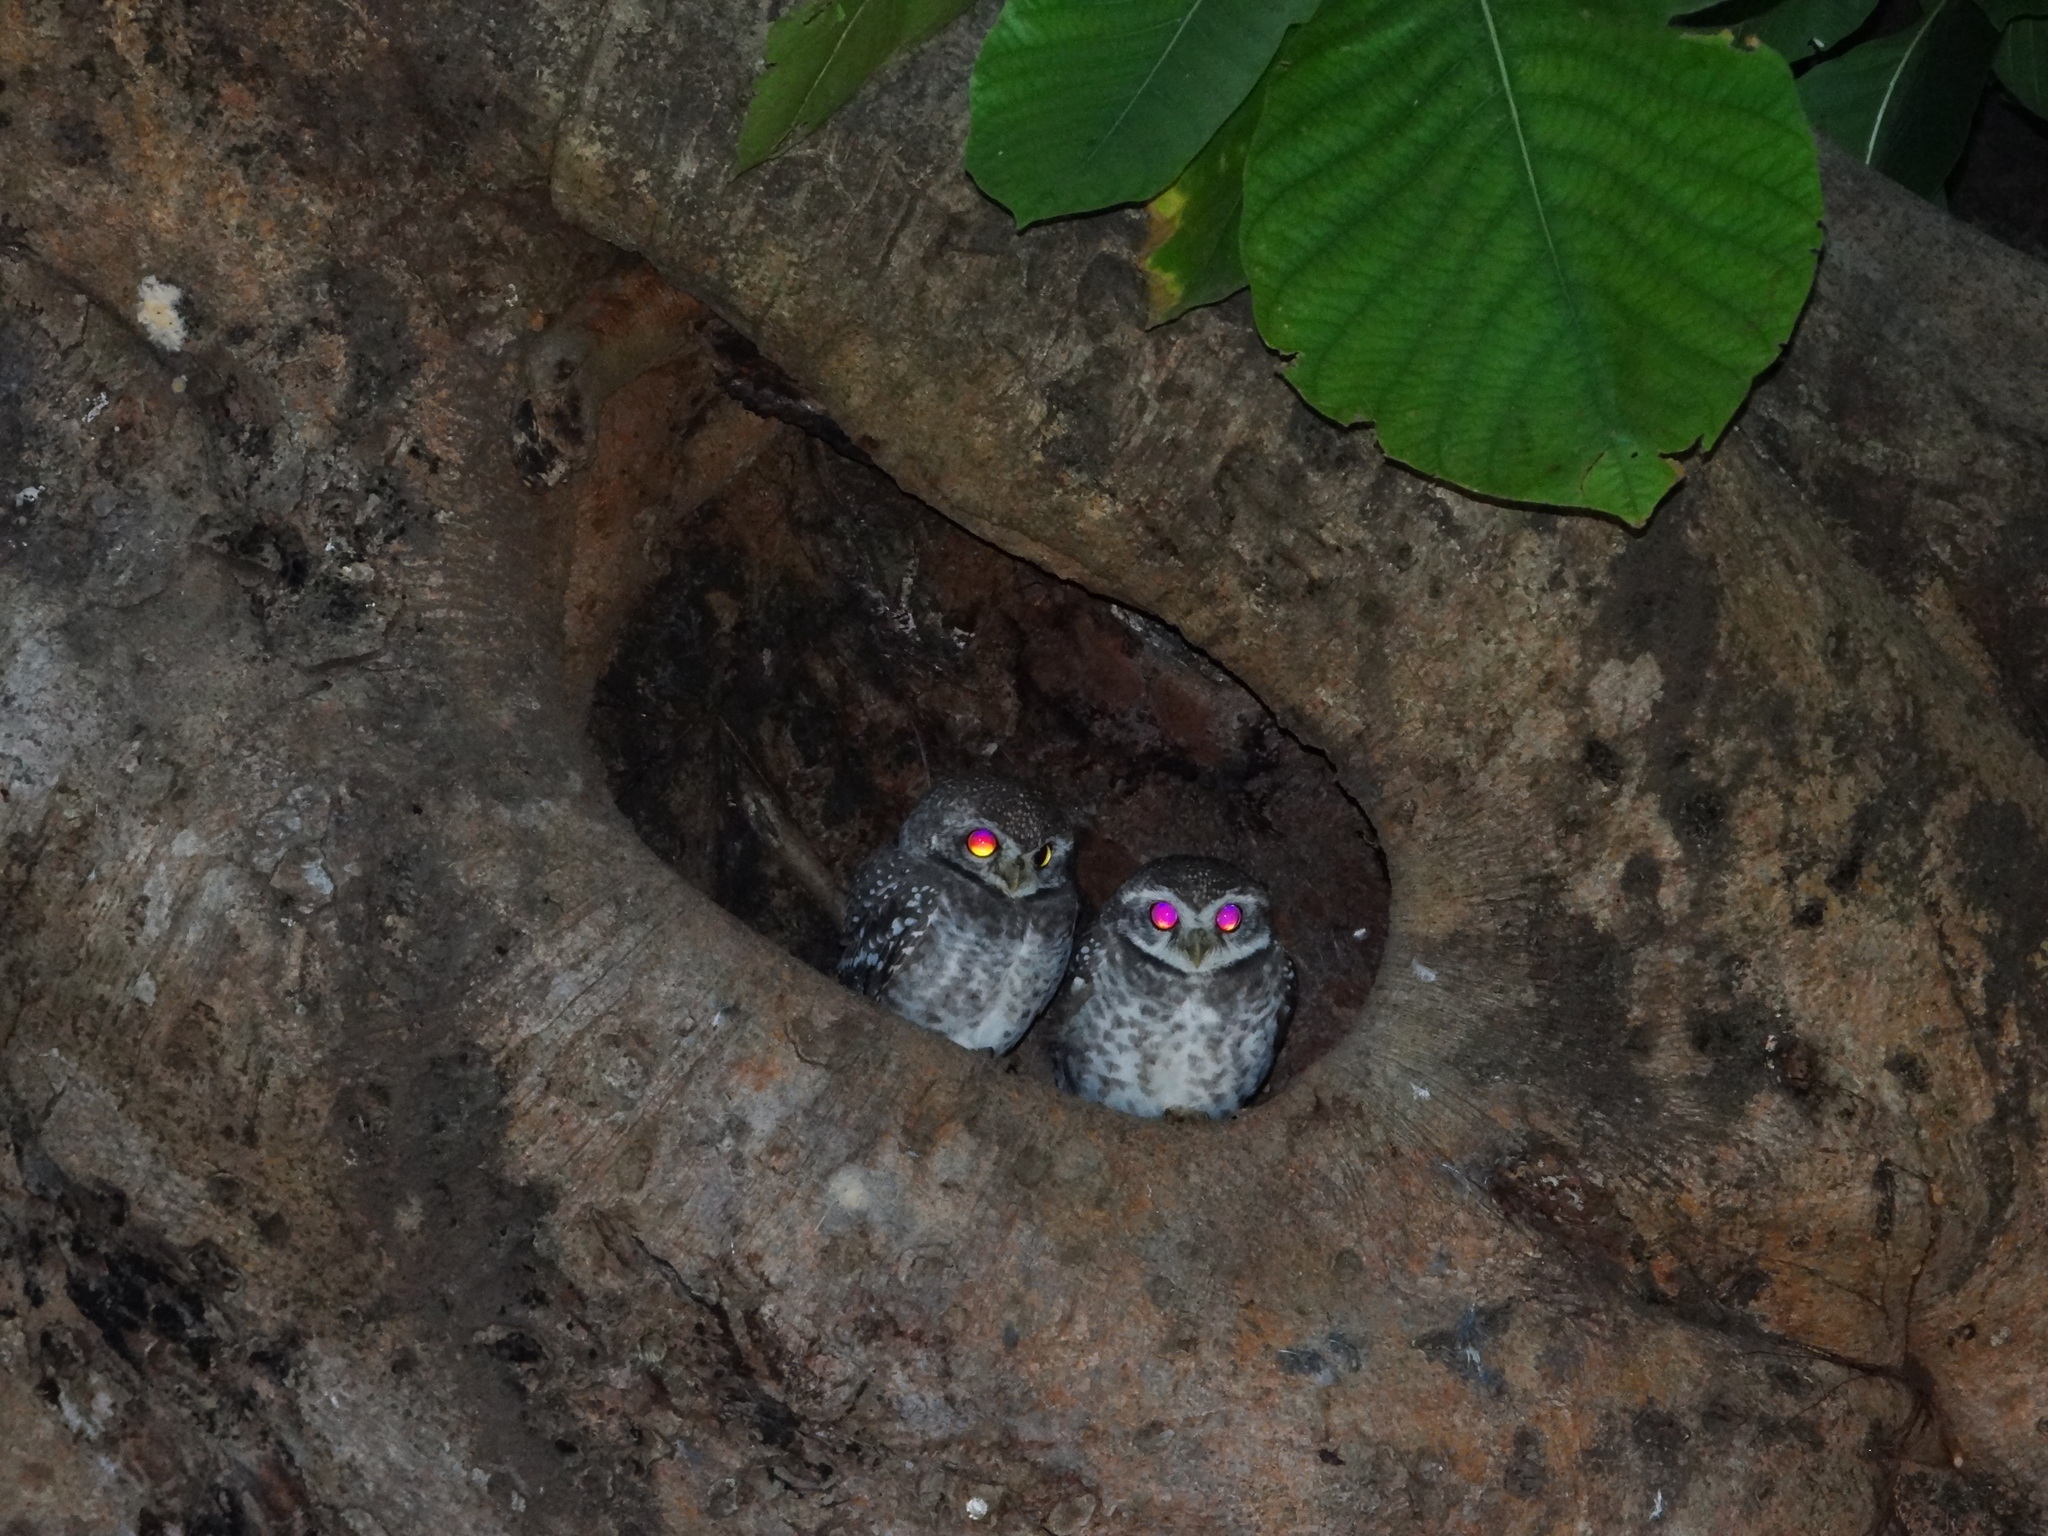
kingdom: Animalia
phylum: Chordata
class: Aves
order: Strigiformes
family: Strigidae
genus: Athene
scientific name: Athene brama
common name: Spotted owlet
